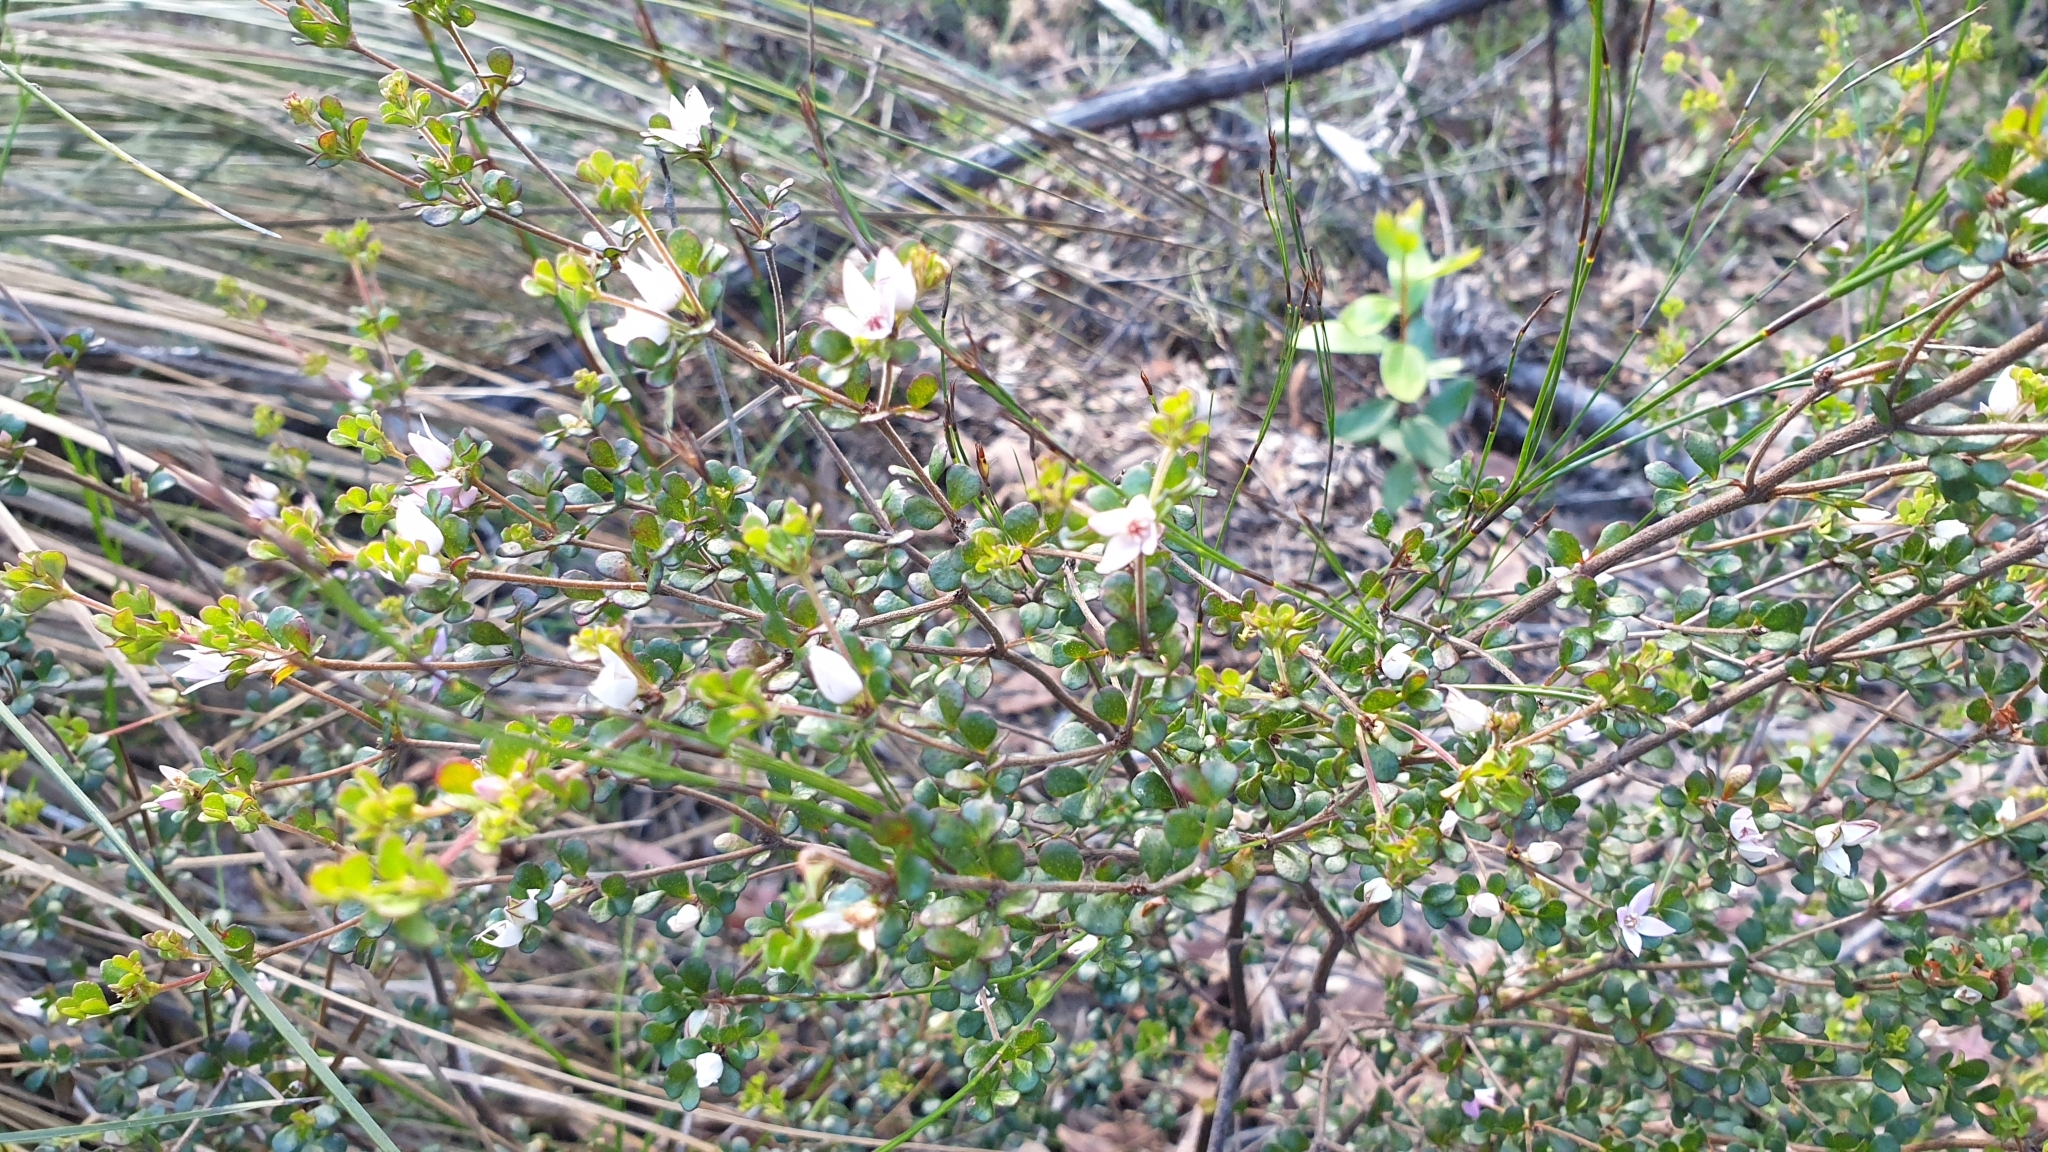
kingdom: Plantae
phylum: Tracheophyta
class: Magnoliopsida
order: Sapindales
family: Rutaceae
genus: Boronia
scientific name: Boronia algida
